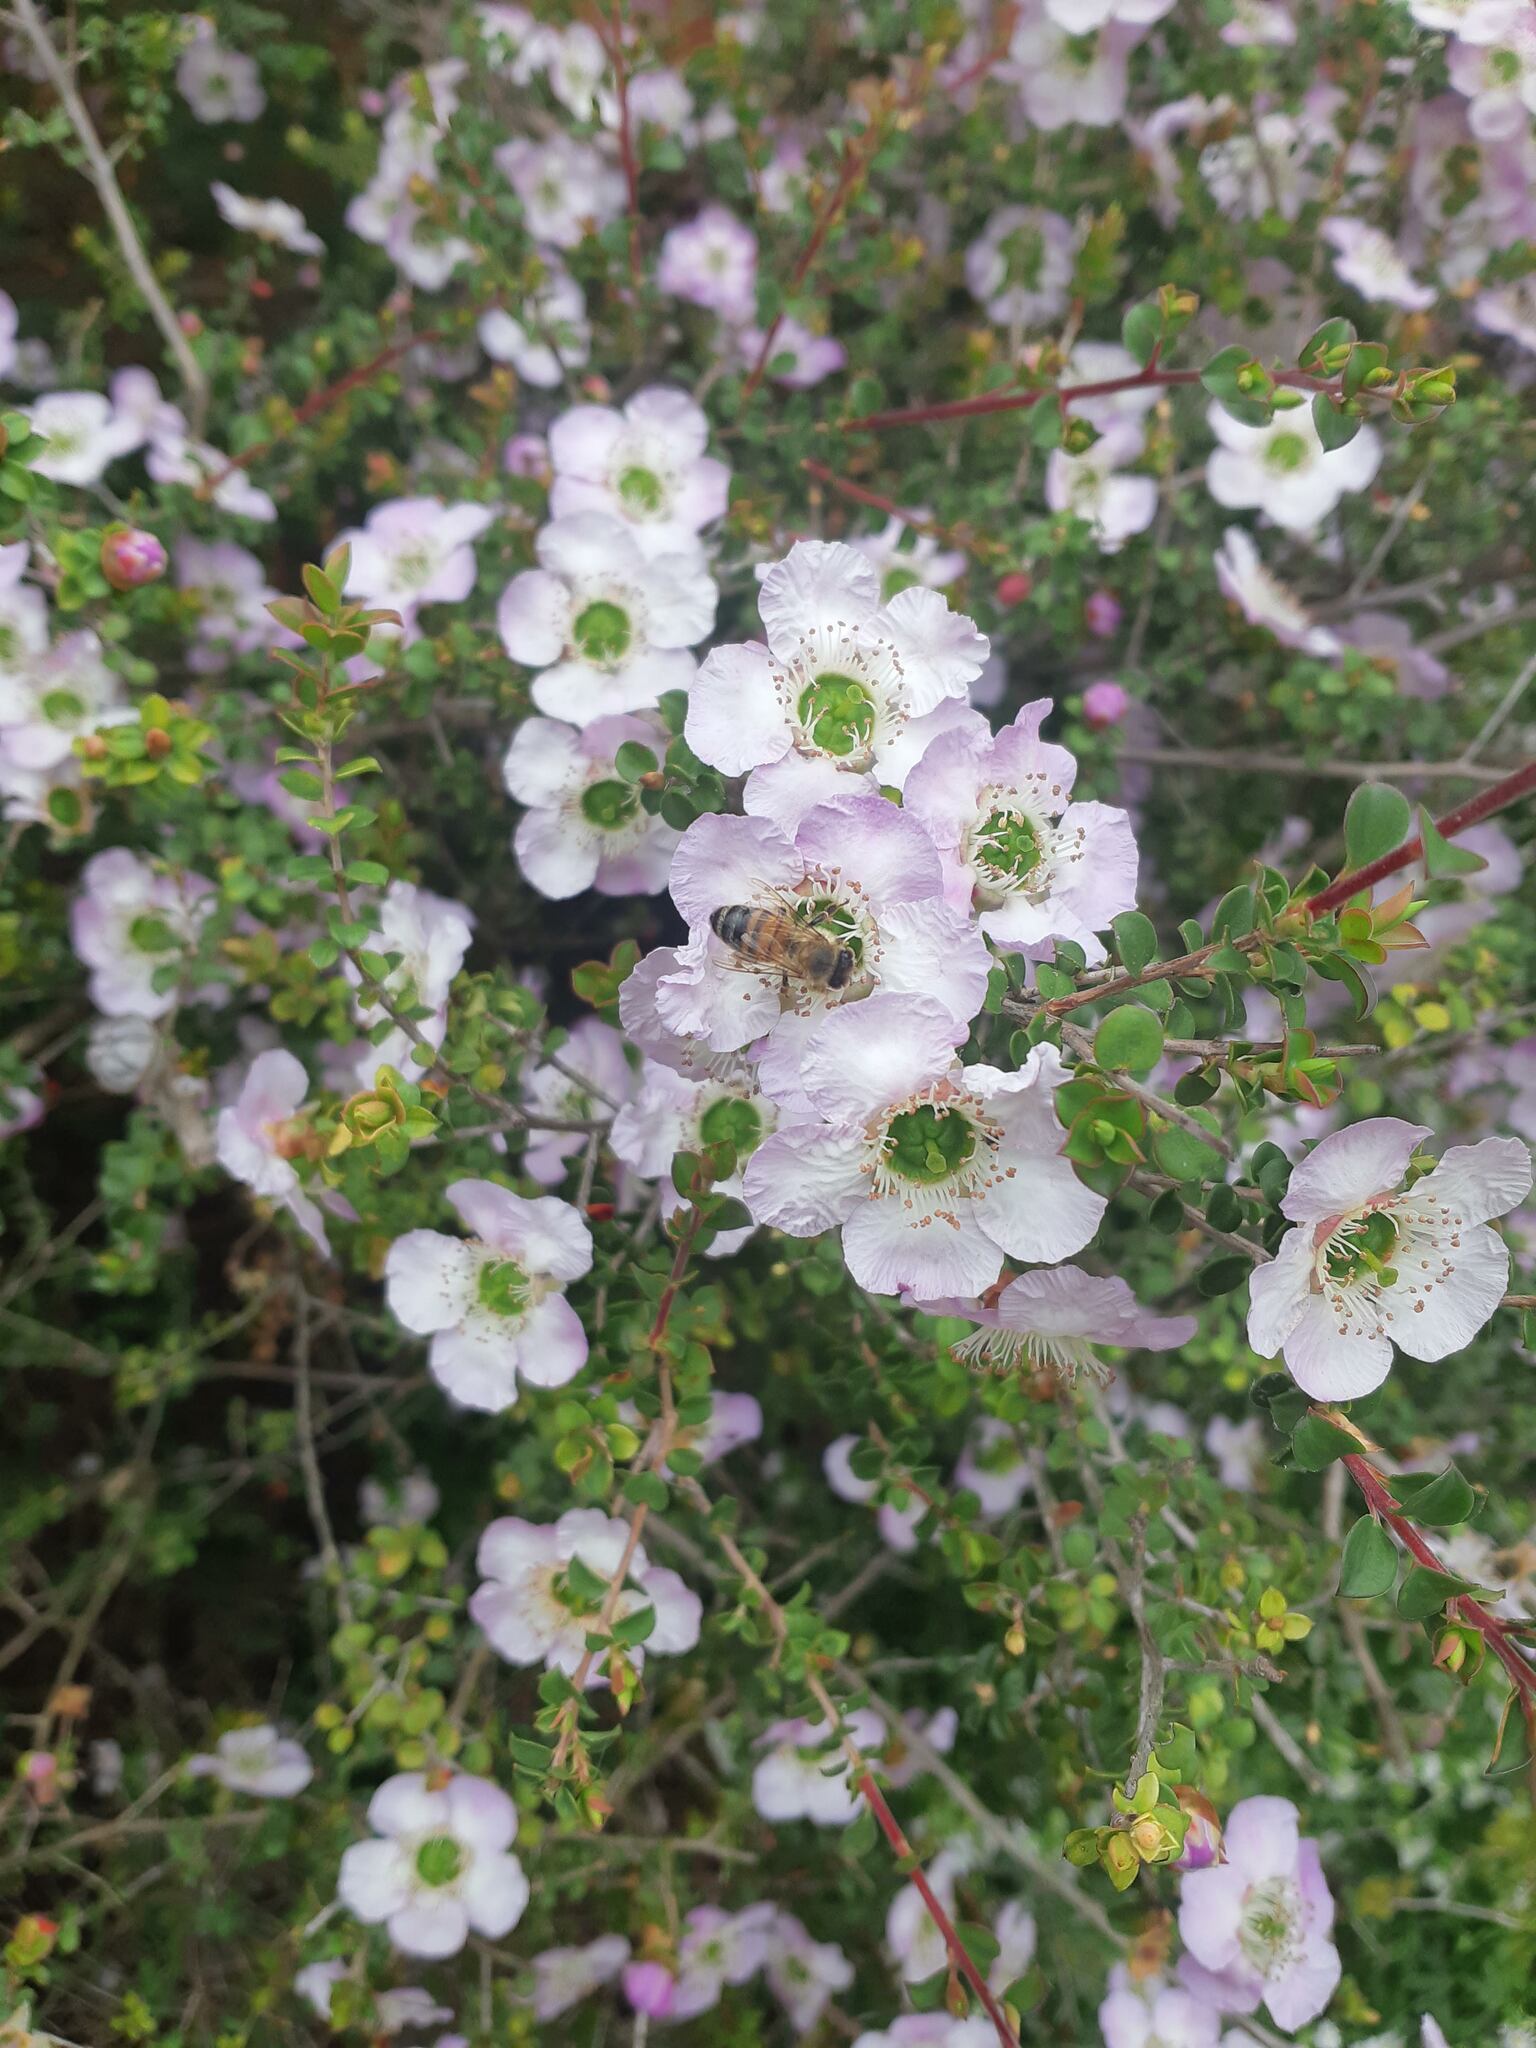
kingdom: Animalia
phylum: Arthropoda
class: Insecta
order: Hymenoptera
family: Apidae
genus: Apis
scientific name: Apis mellifera
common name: Honey bee
